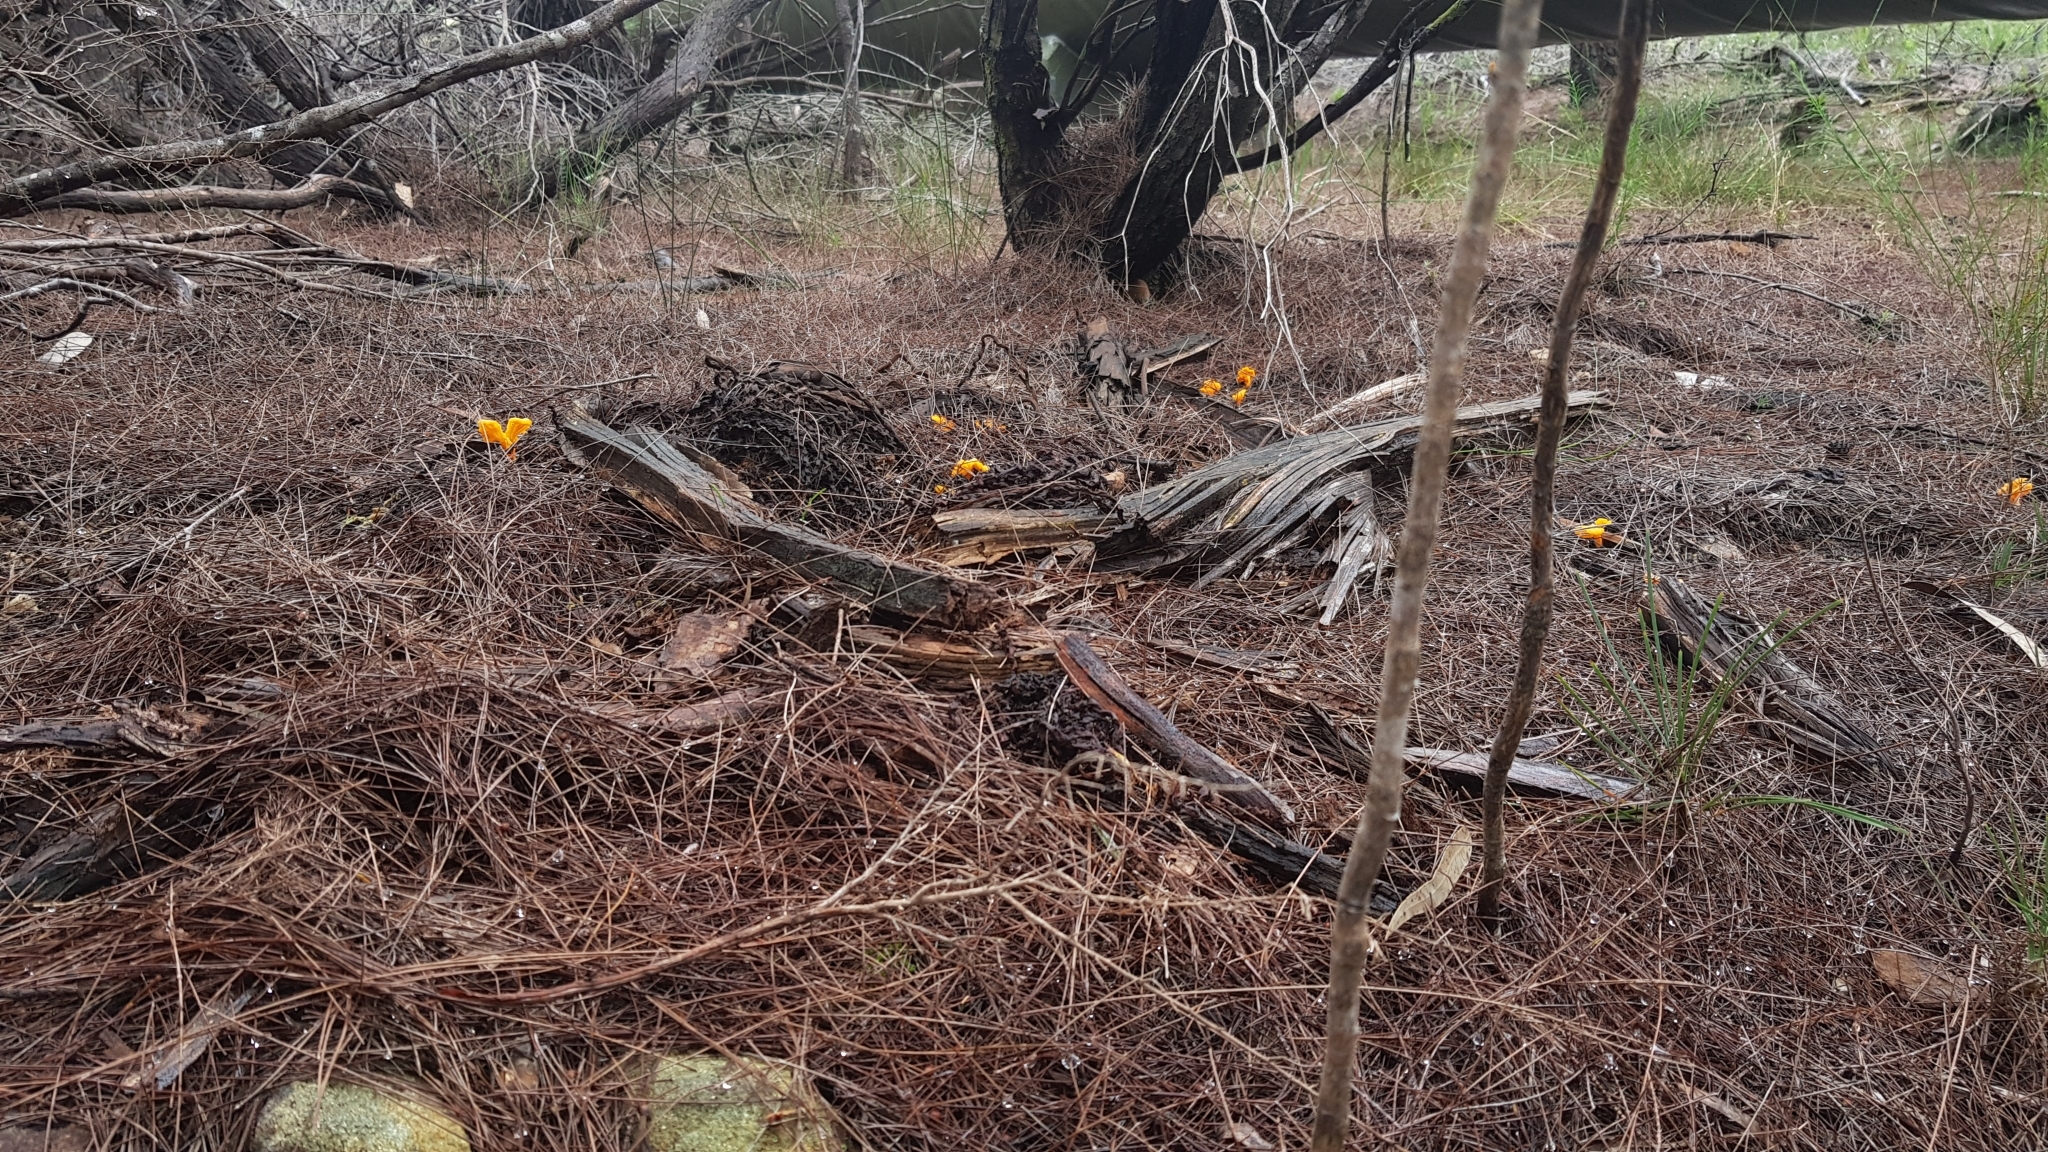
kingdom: Fungi
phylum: Basidiomycota
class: Agaricomycetes
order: Cantharellales
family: Hydnaceae
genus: Cantharellus
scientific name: Cantharellus
